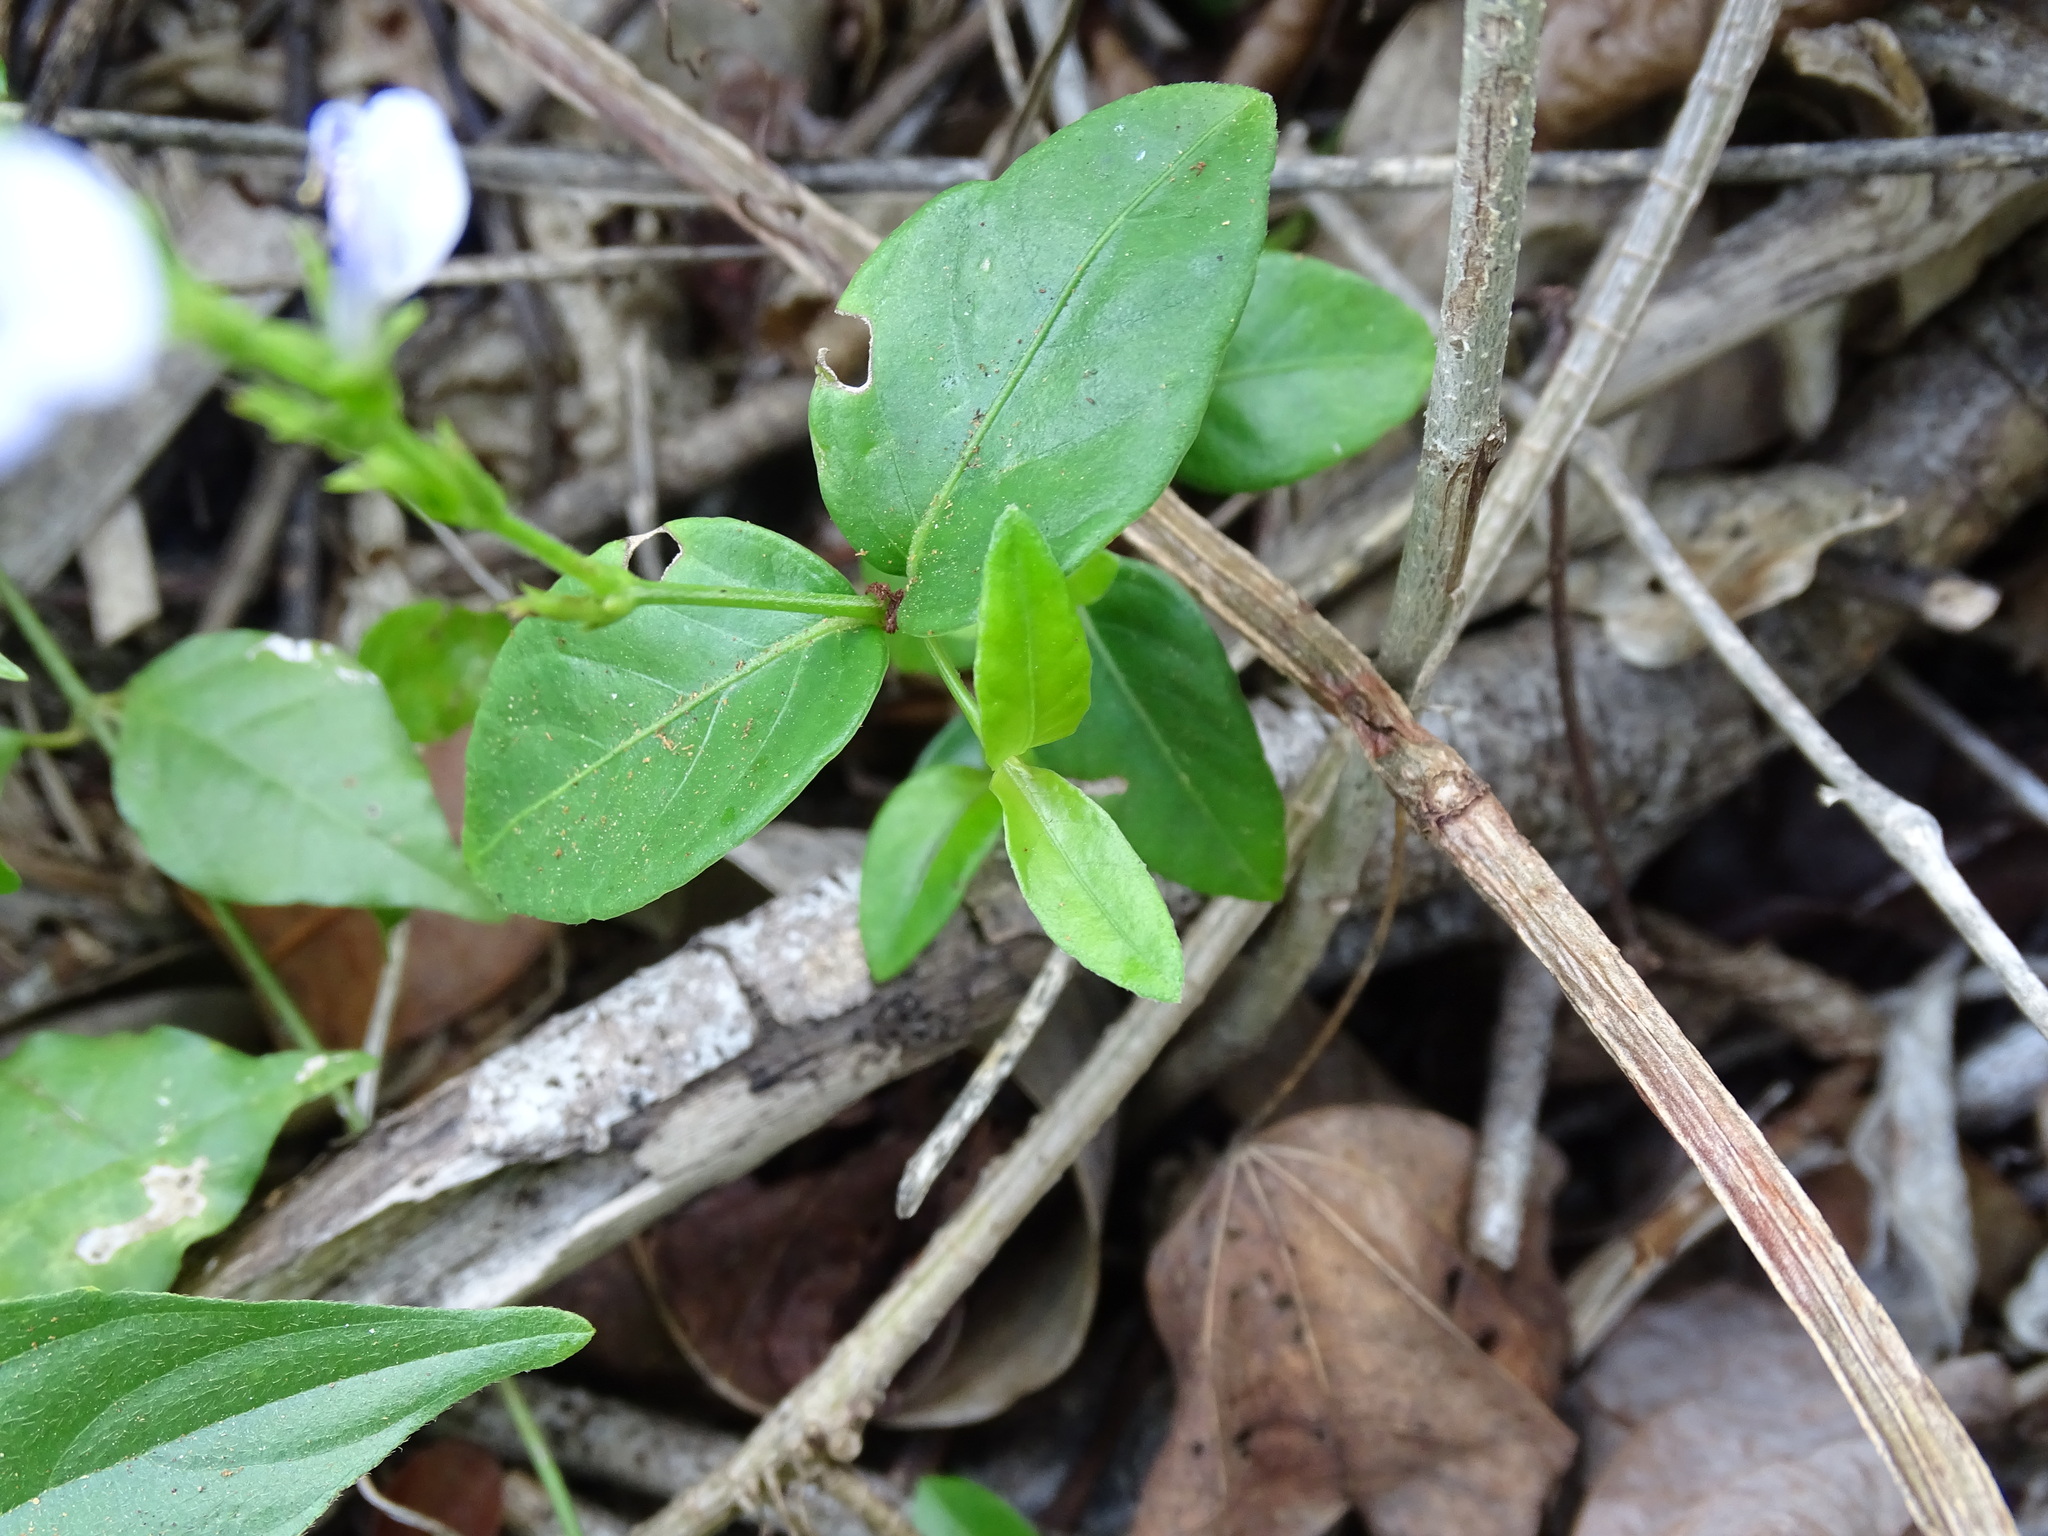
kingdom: Plantae
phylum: Tracheophyta
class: Magnoliopsida
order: Lamiales
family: Acanthaceae
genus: Justicia
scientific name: Justicia cobensis
